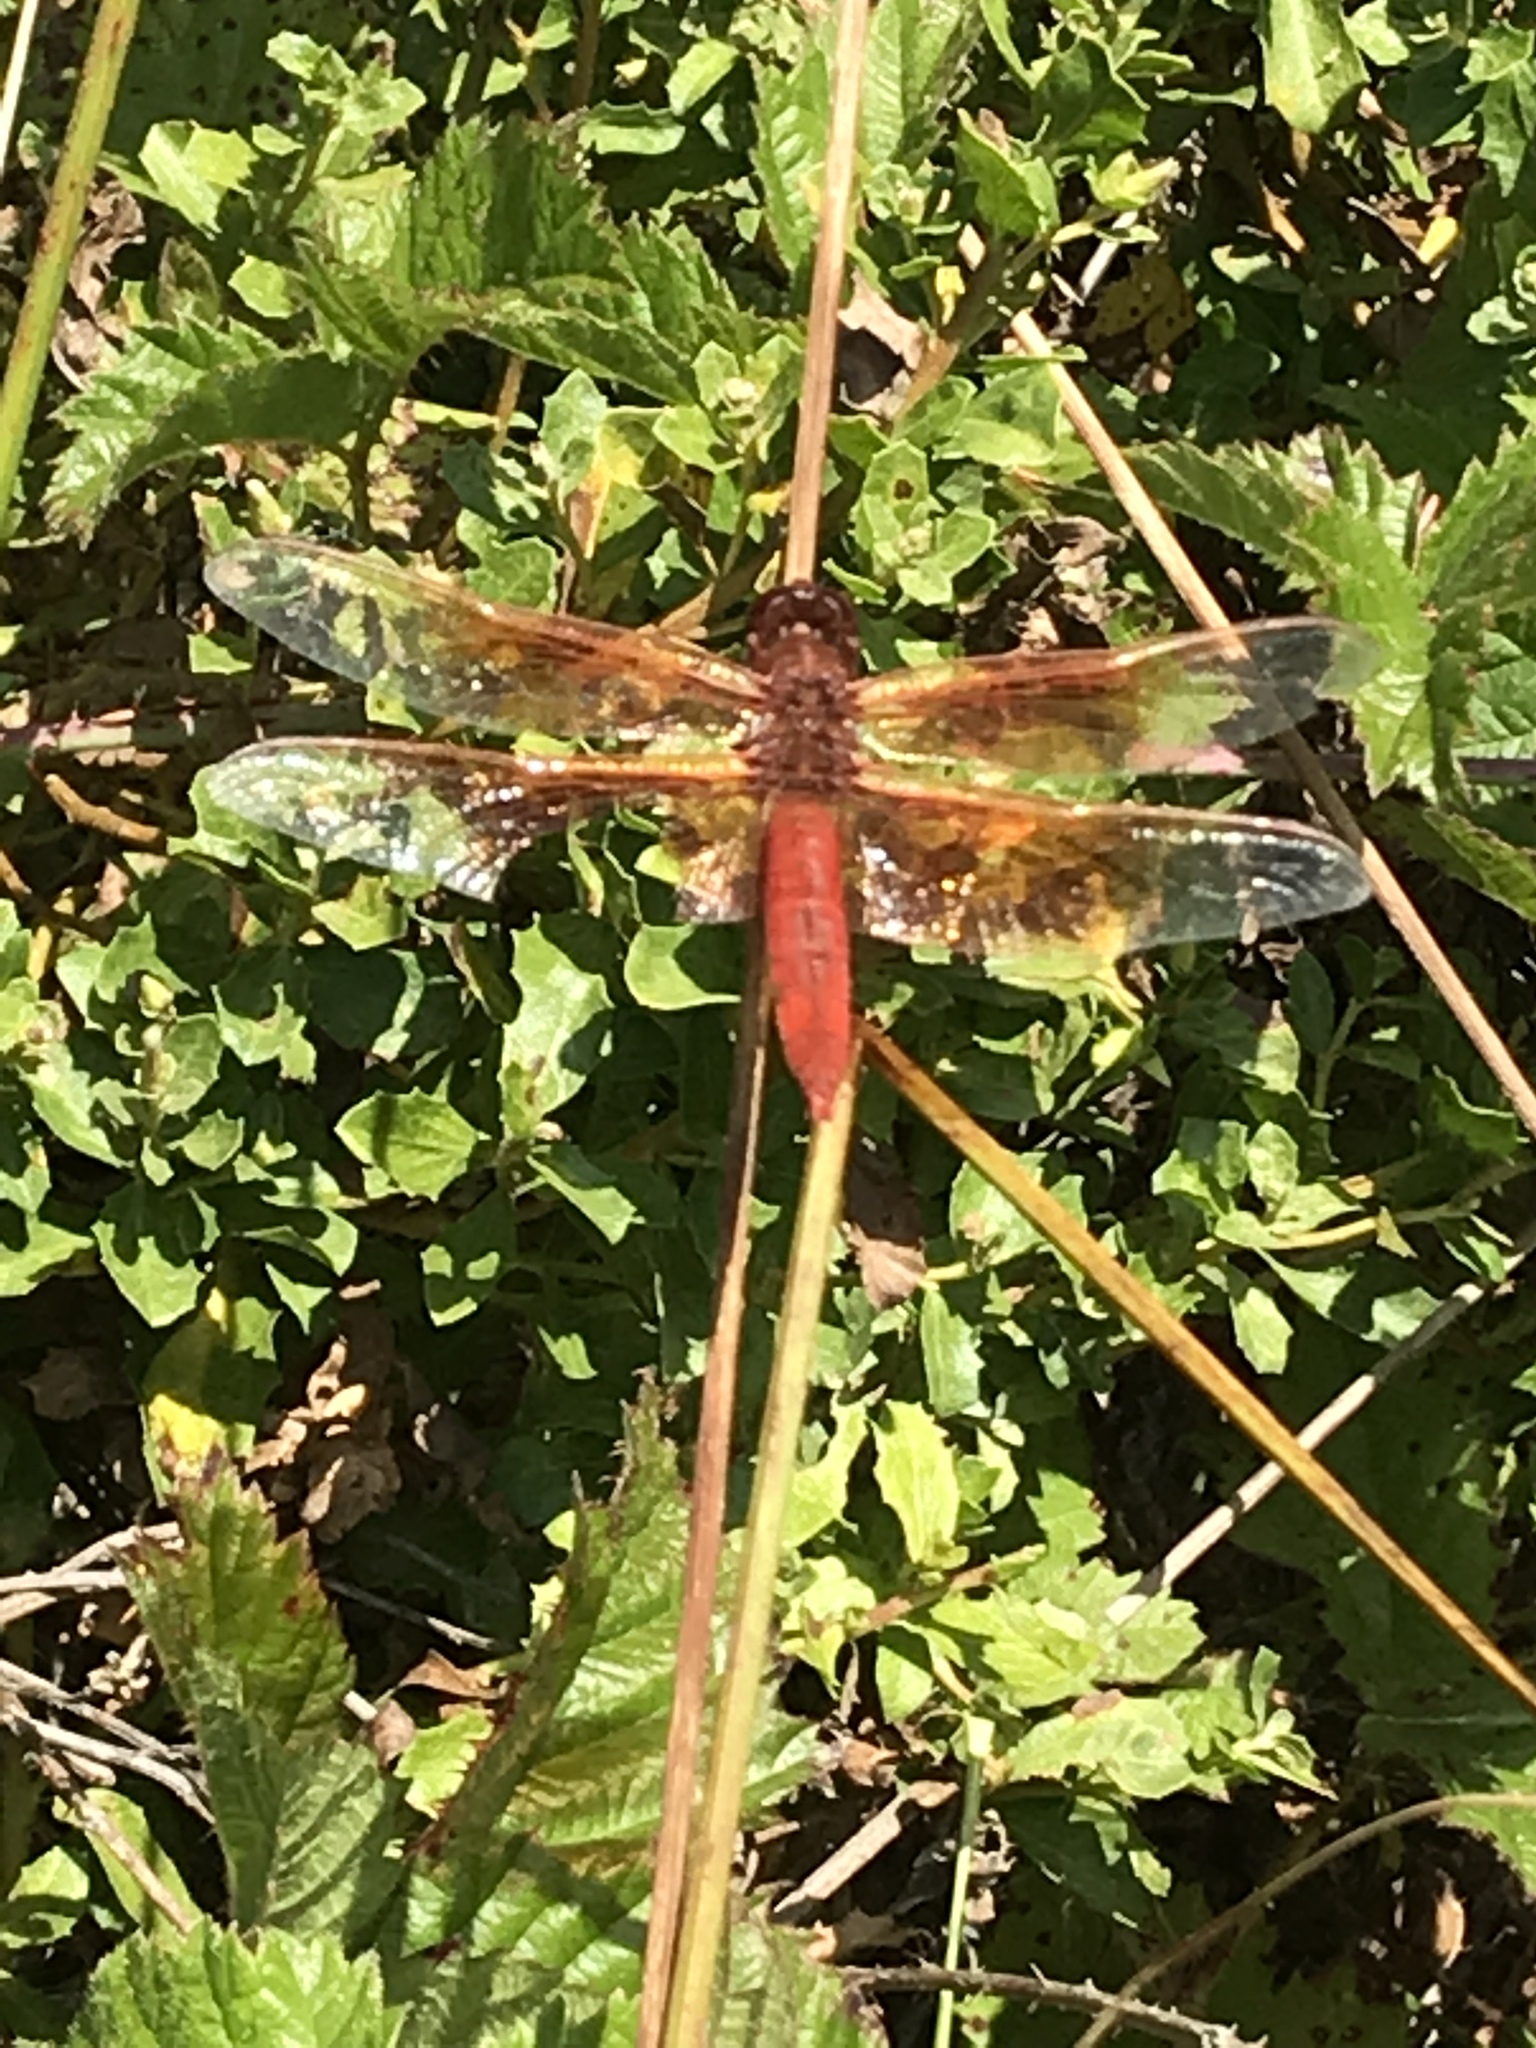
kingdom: Animalia
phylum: Arthropoda
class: Insecta
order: Odonata
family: Libellulidae
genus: Libellula
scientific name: Libellula saturata
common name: Flame skimmer
